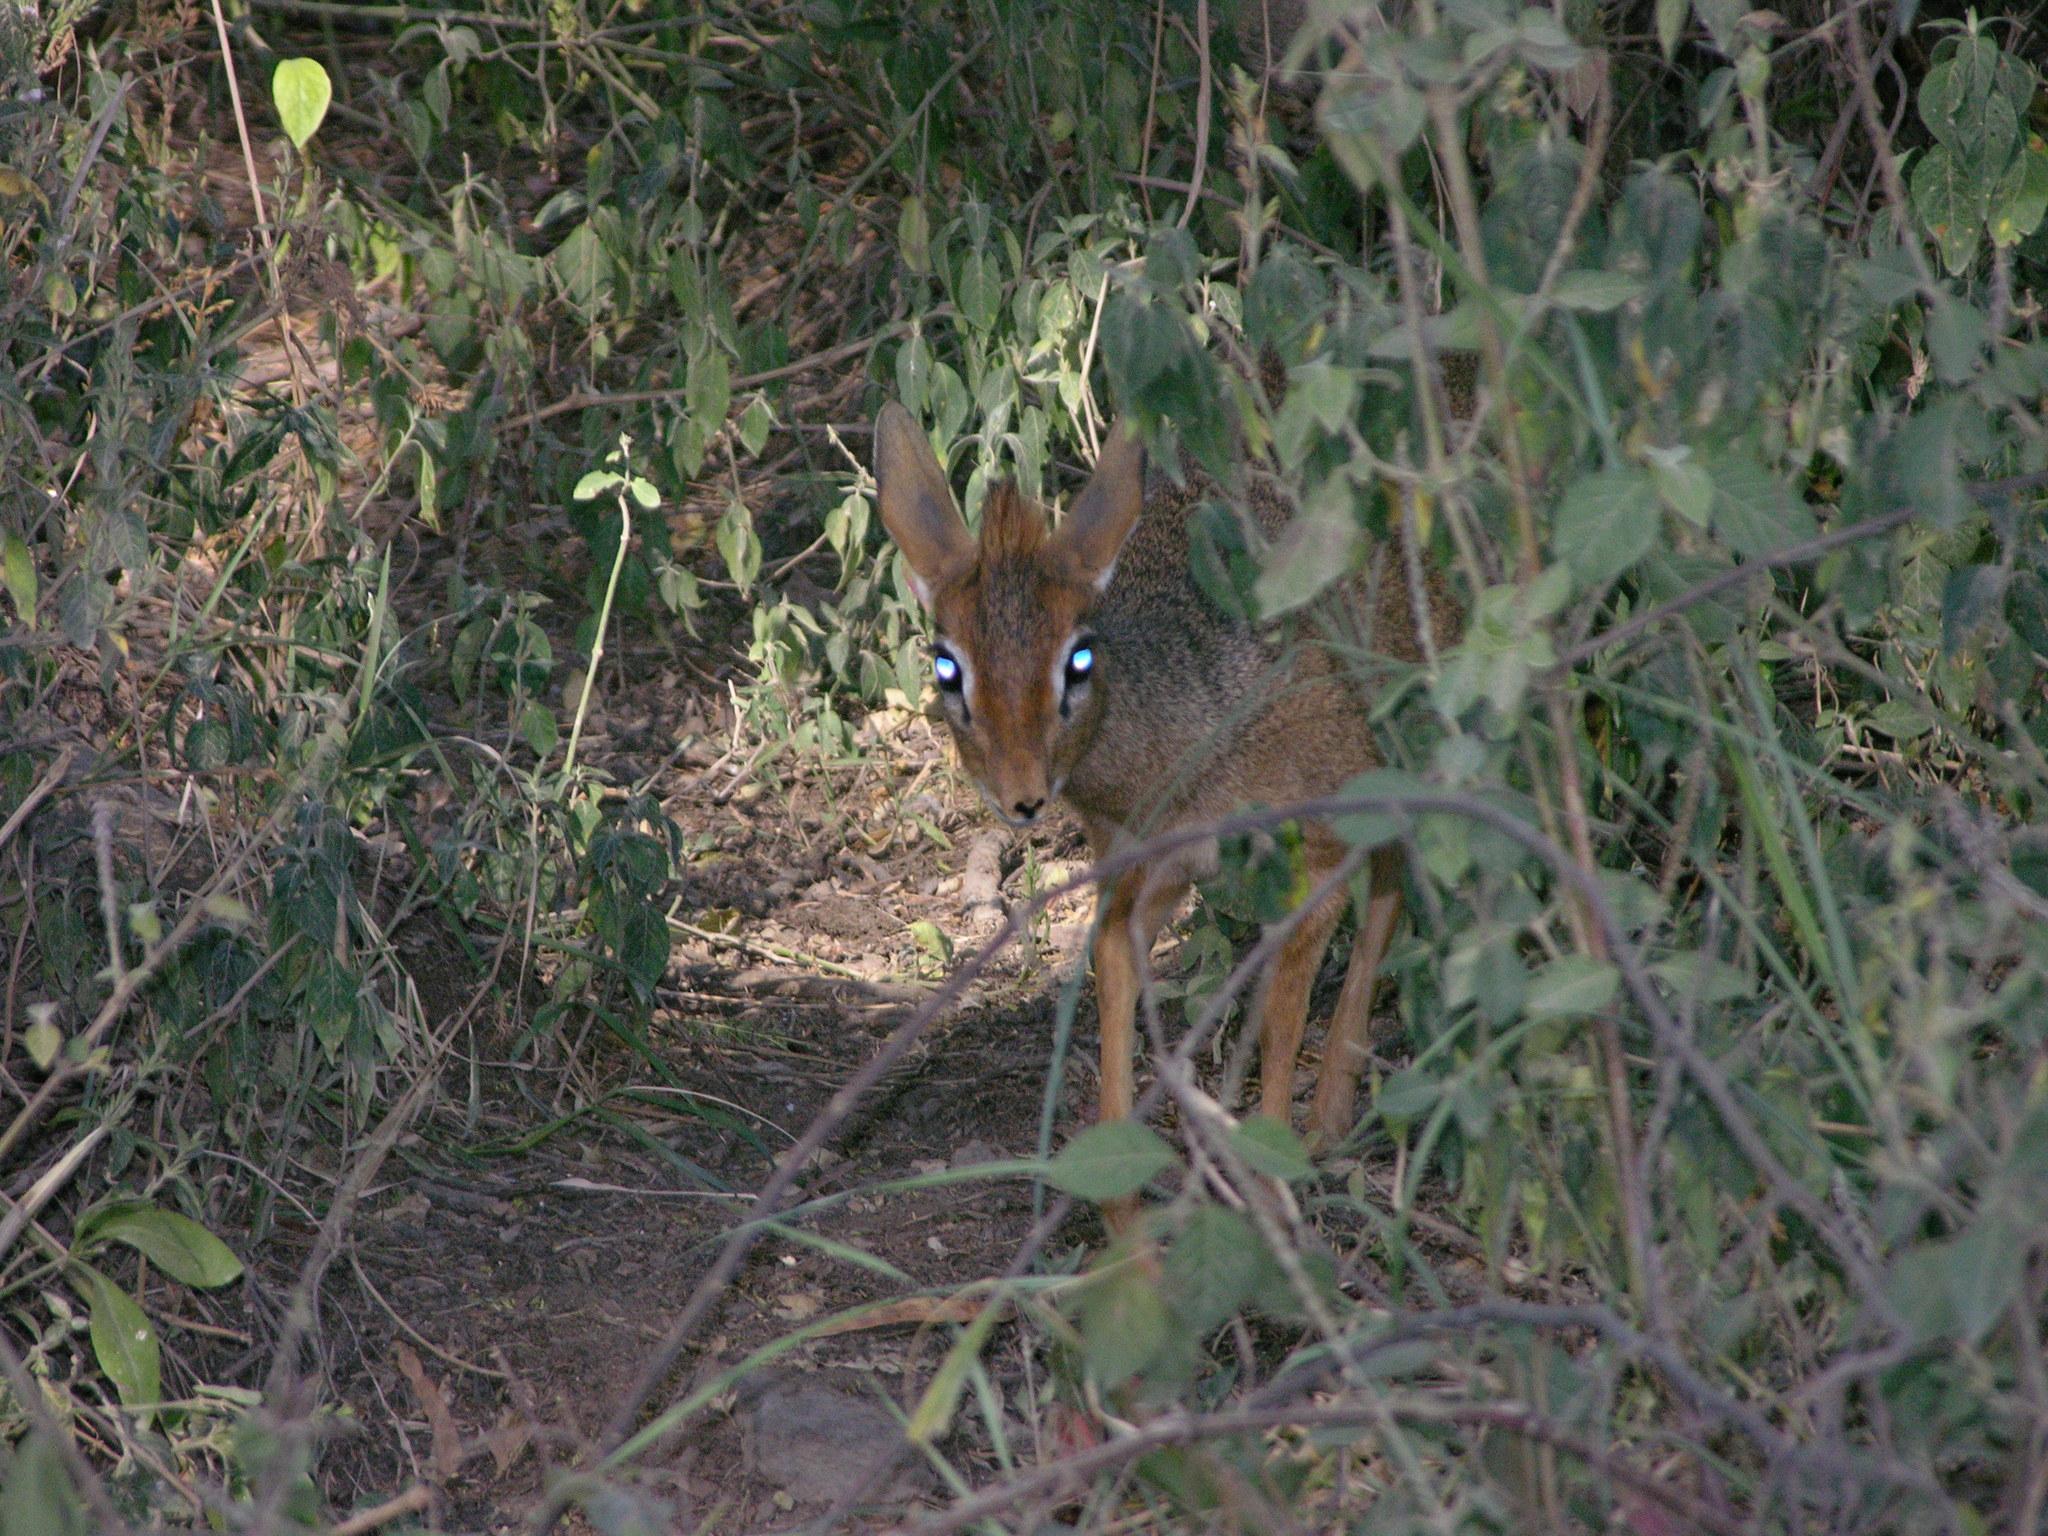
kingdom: Animalia
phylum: Chordata
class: Mammalia
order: Artiodactyla
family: Bovidae
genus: Madoqua
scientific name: Madoqua
